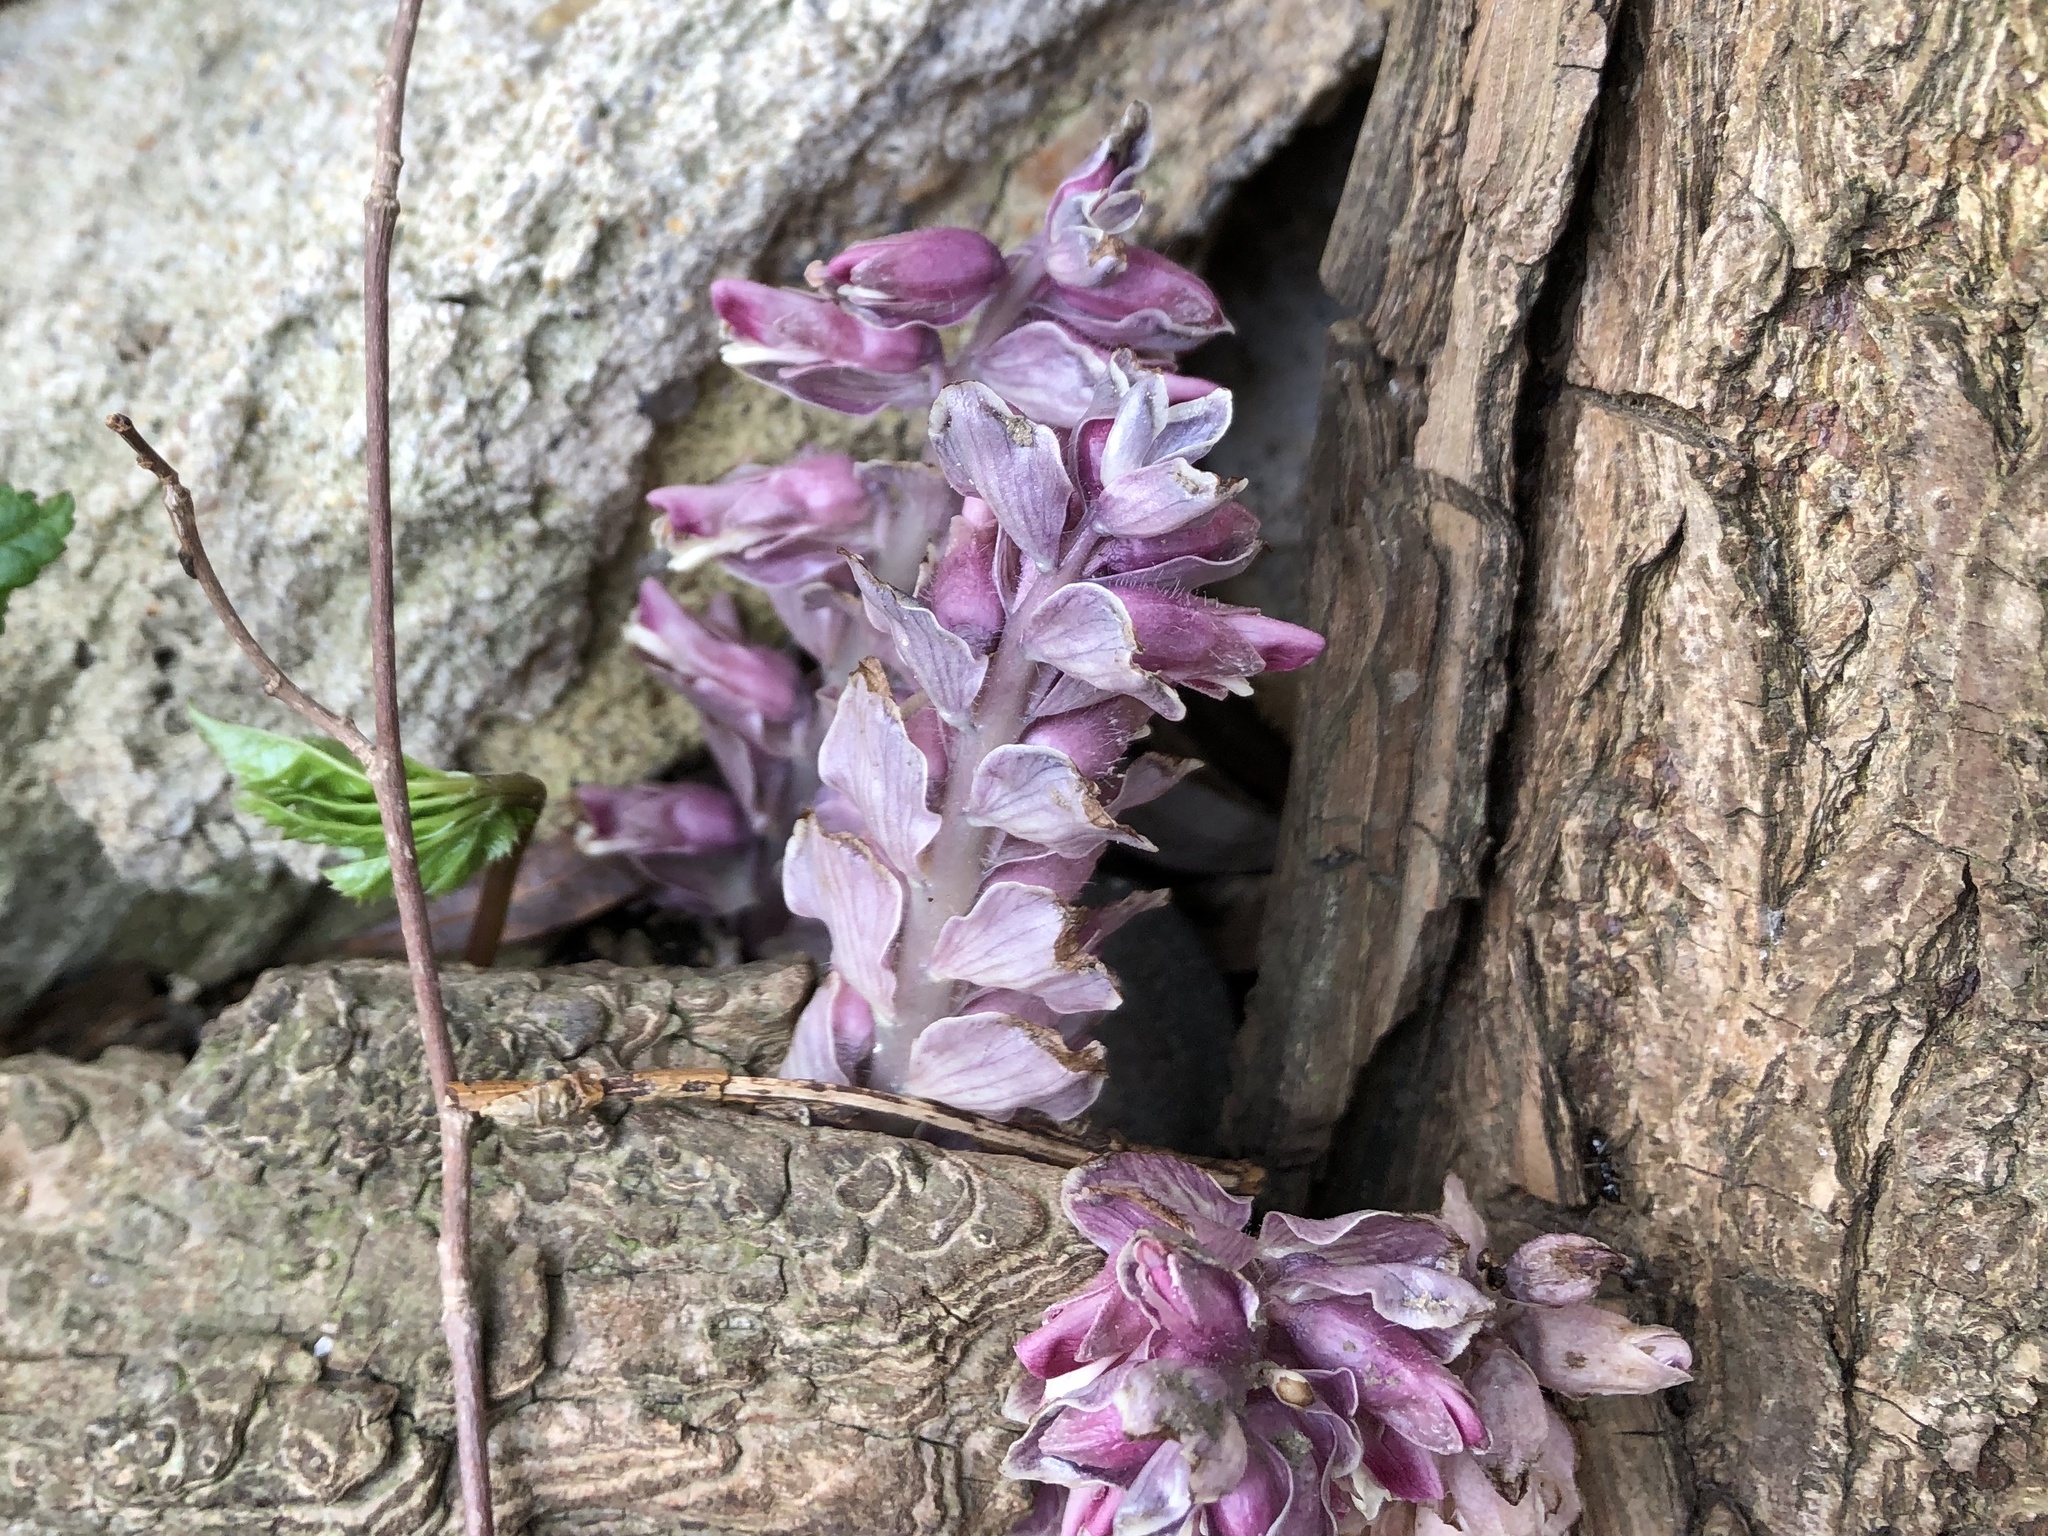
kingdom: Plantae
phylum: Tracheophyta
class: Magnoliopsida
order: Lamiales
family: Orobanchaceae
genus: Lathraea
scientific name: Lathraea squamaria
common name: Toothwort
